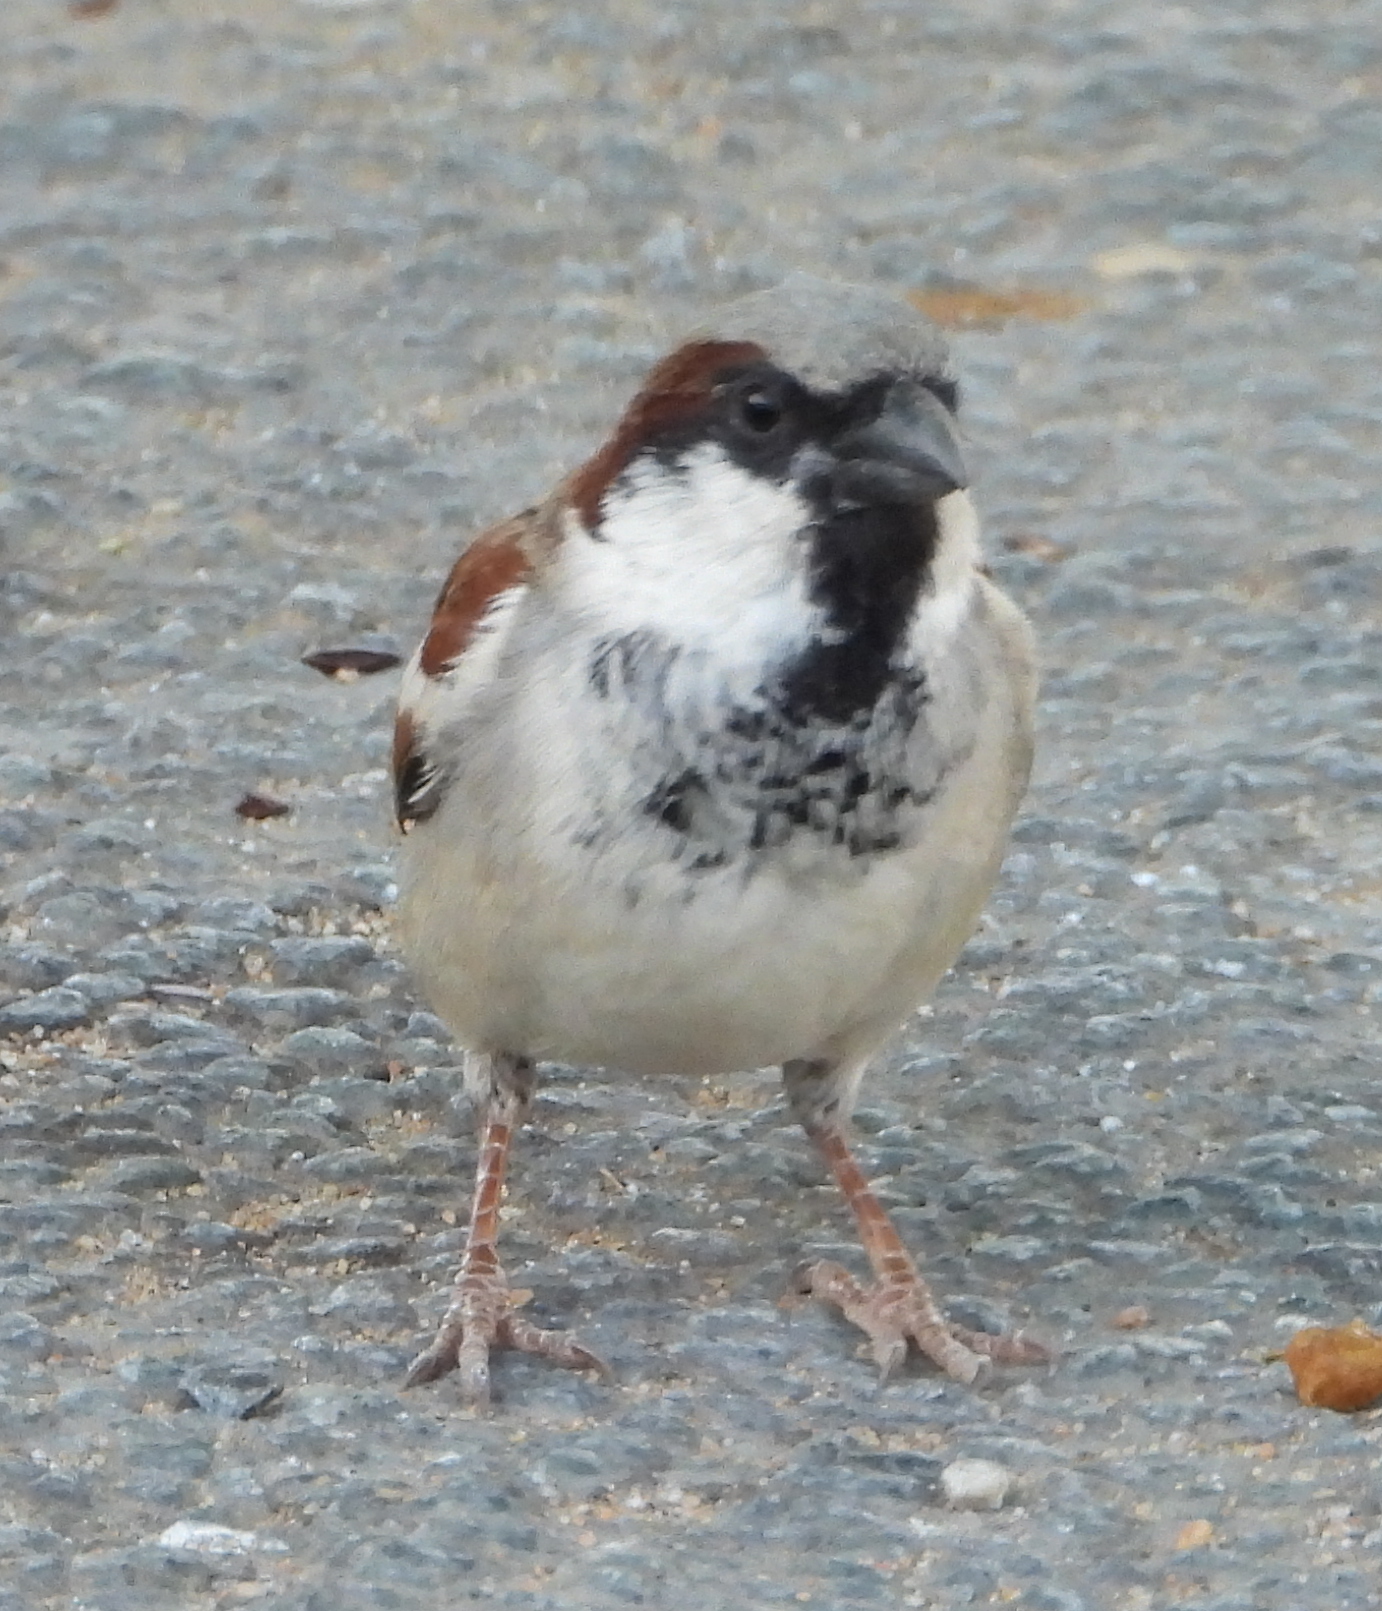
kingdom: Animalia
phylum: Chordata
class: Aves
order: Passeriformes
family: Passeridae
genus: Passer
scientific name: Passer domesticus
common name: House sparrow
